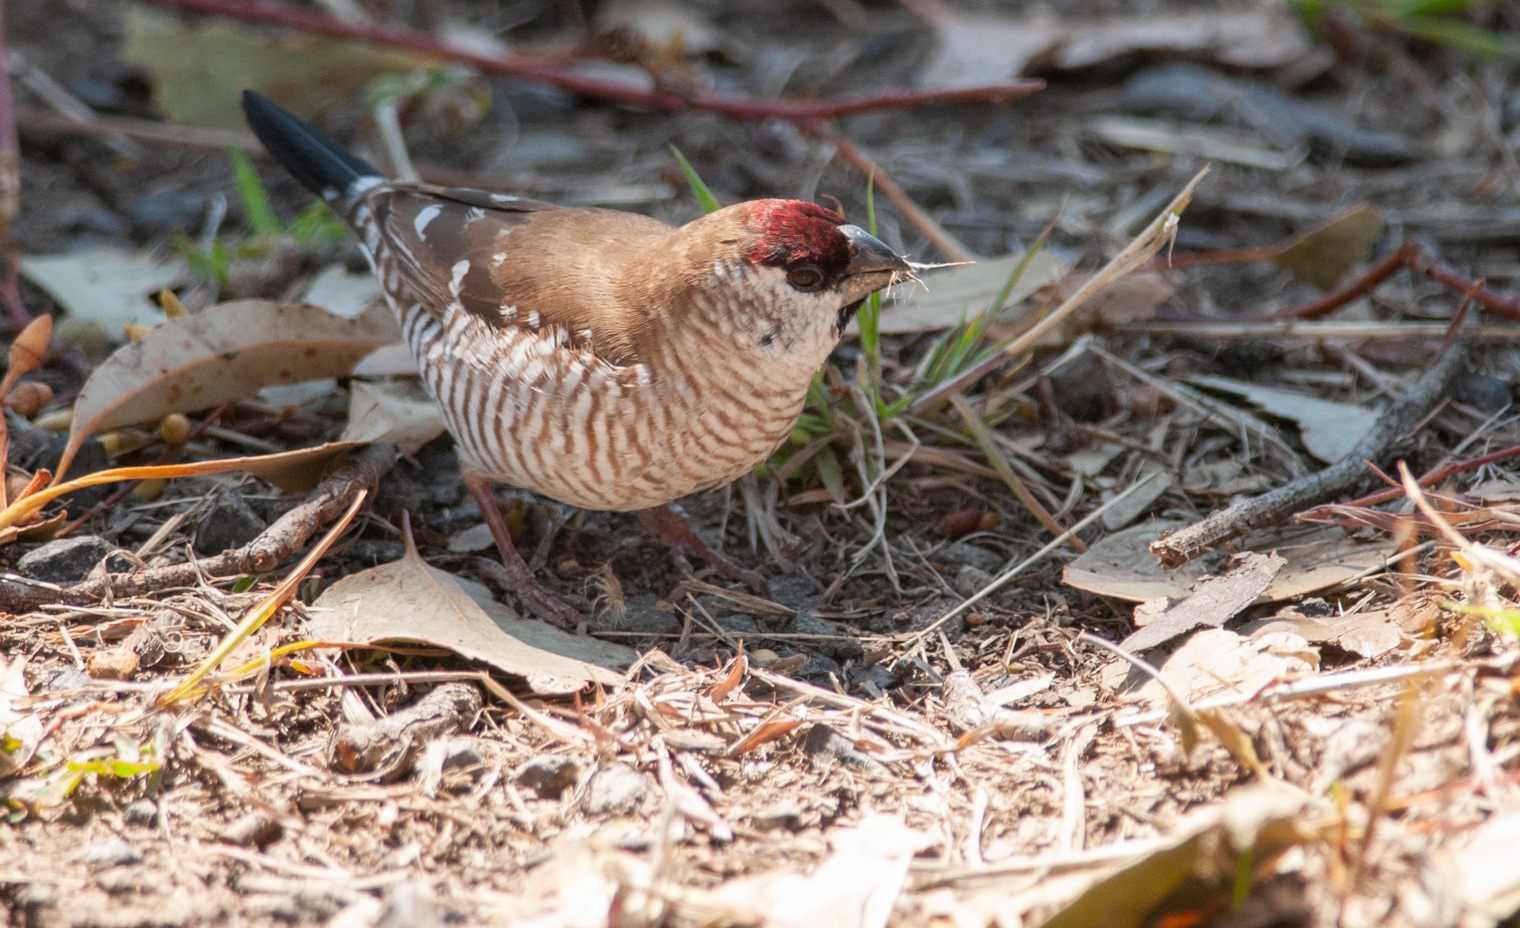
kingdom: Animalia
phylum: Chordata
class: Aves
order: Passeriformes
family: Estrildidae
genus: Neochmia
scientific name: Neochmia modesta
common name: Plum-headed finch
